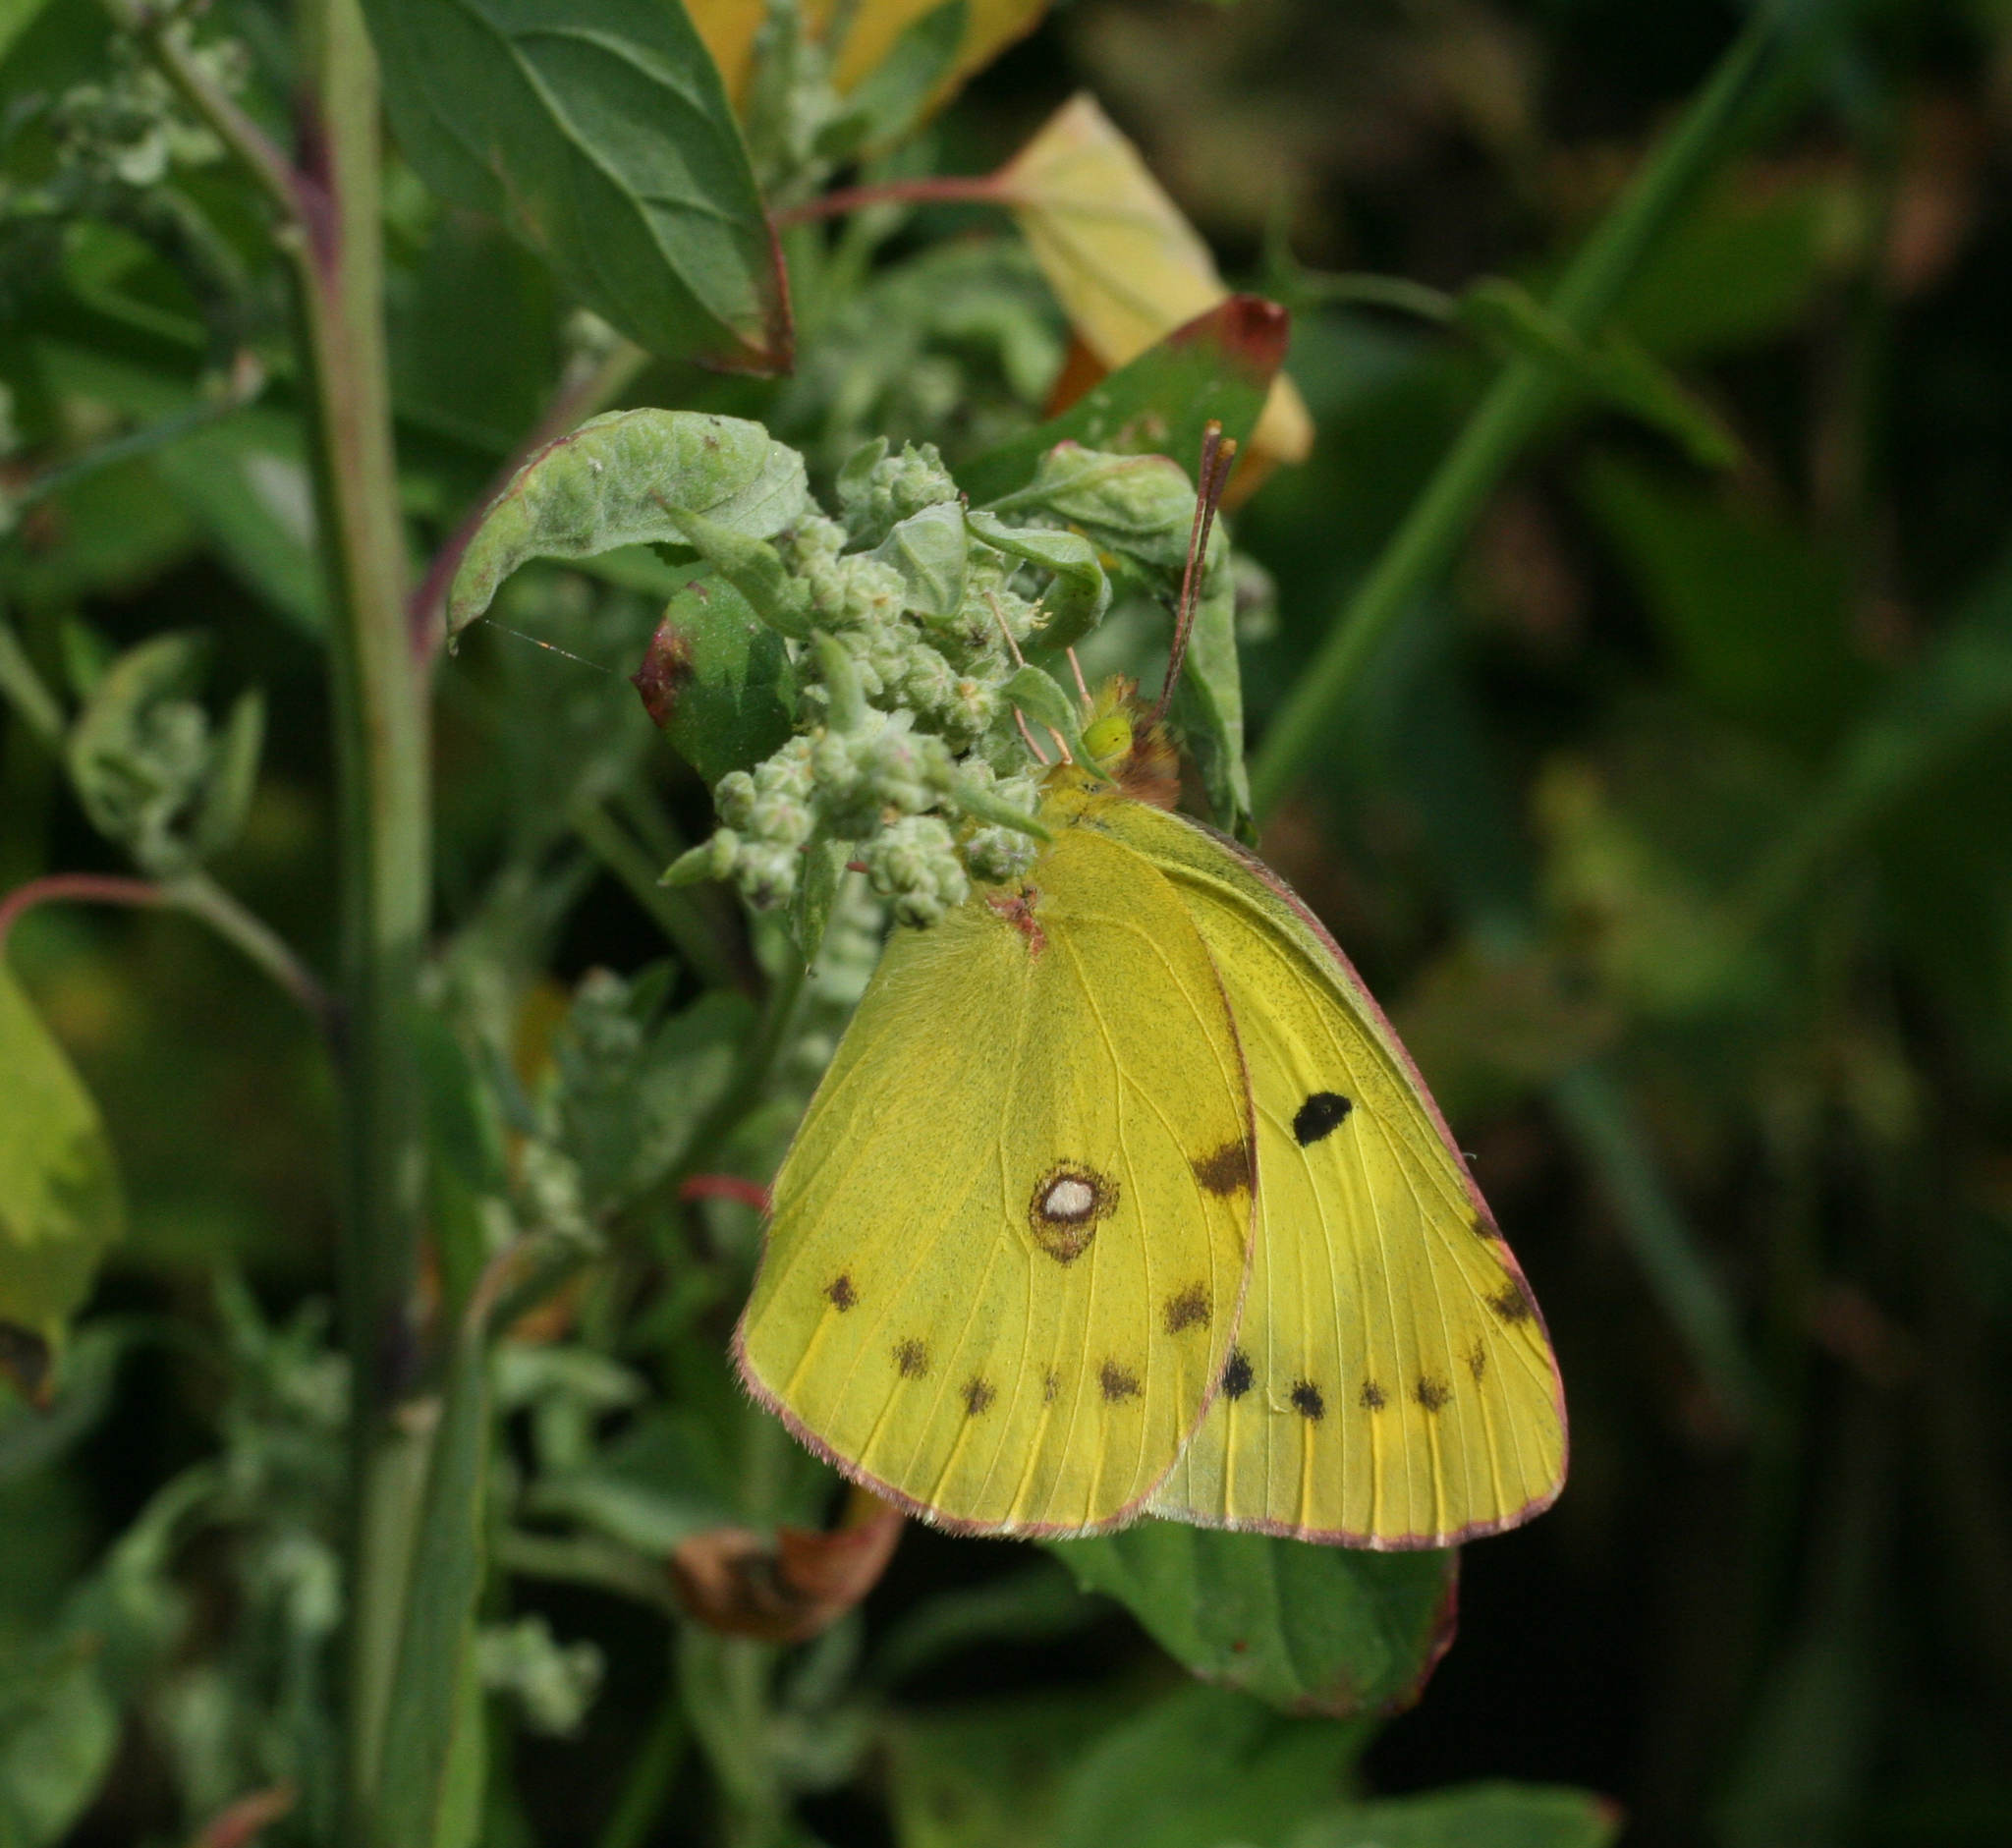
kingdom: Animalia
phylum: Arthropoda
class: Insecta
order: Lepidoptera
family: Pieridae
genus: Colias
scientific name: Colias poliographus
